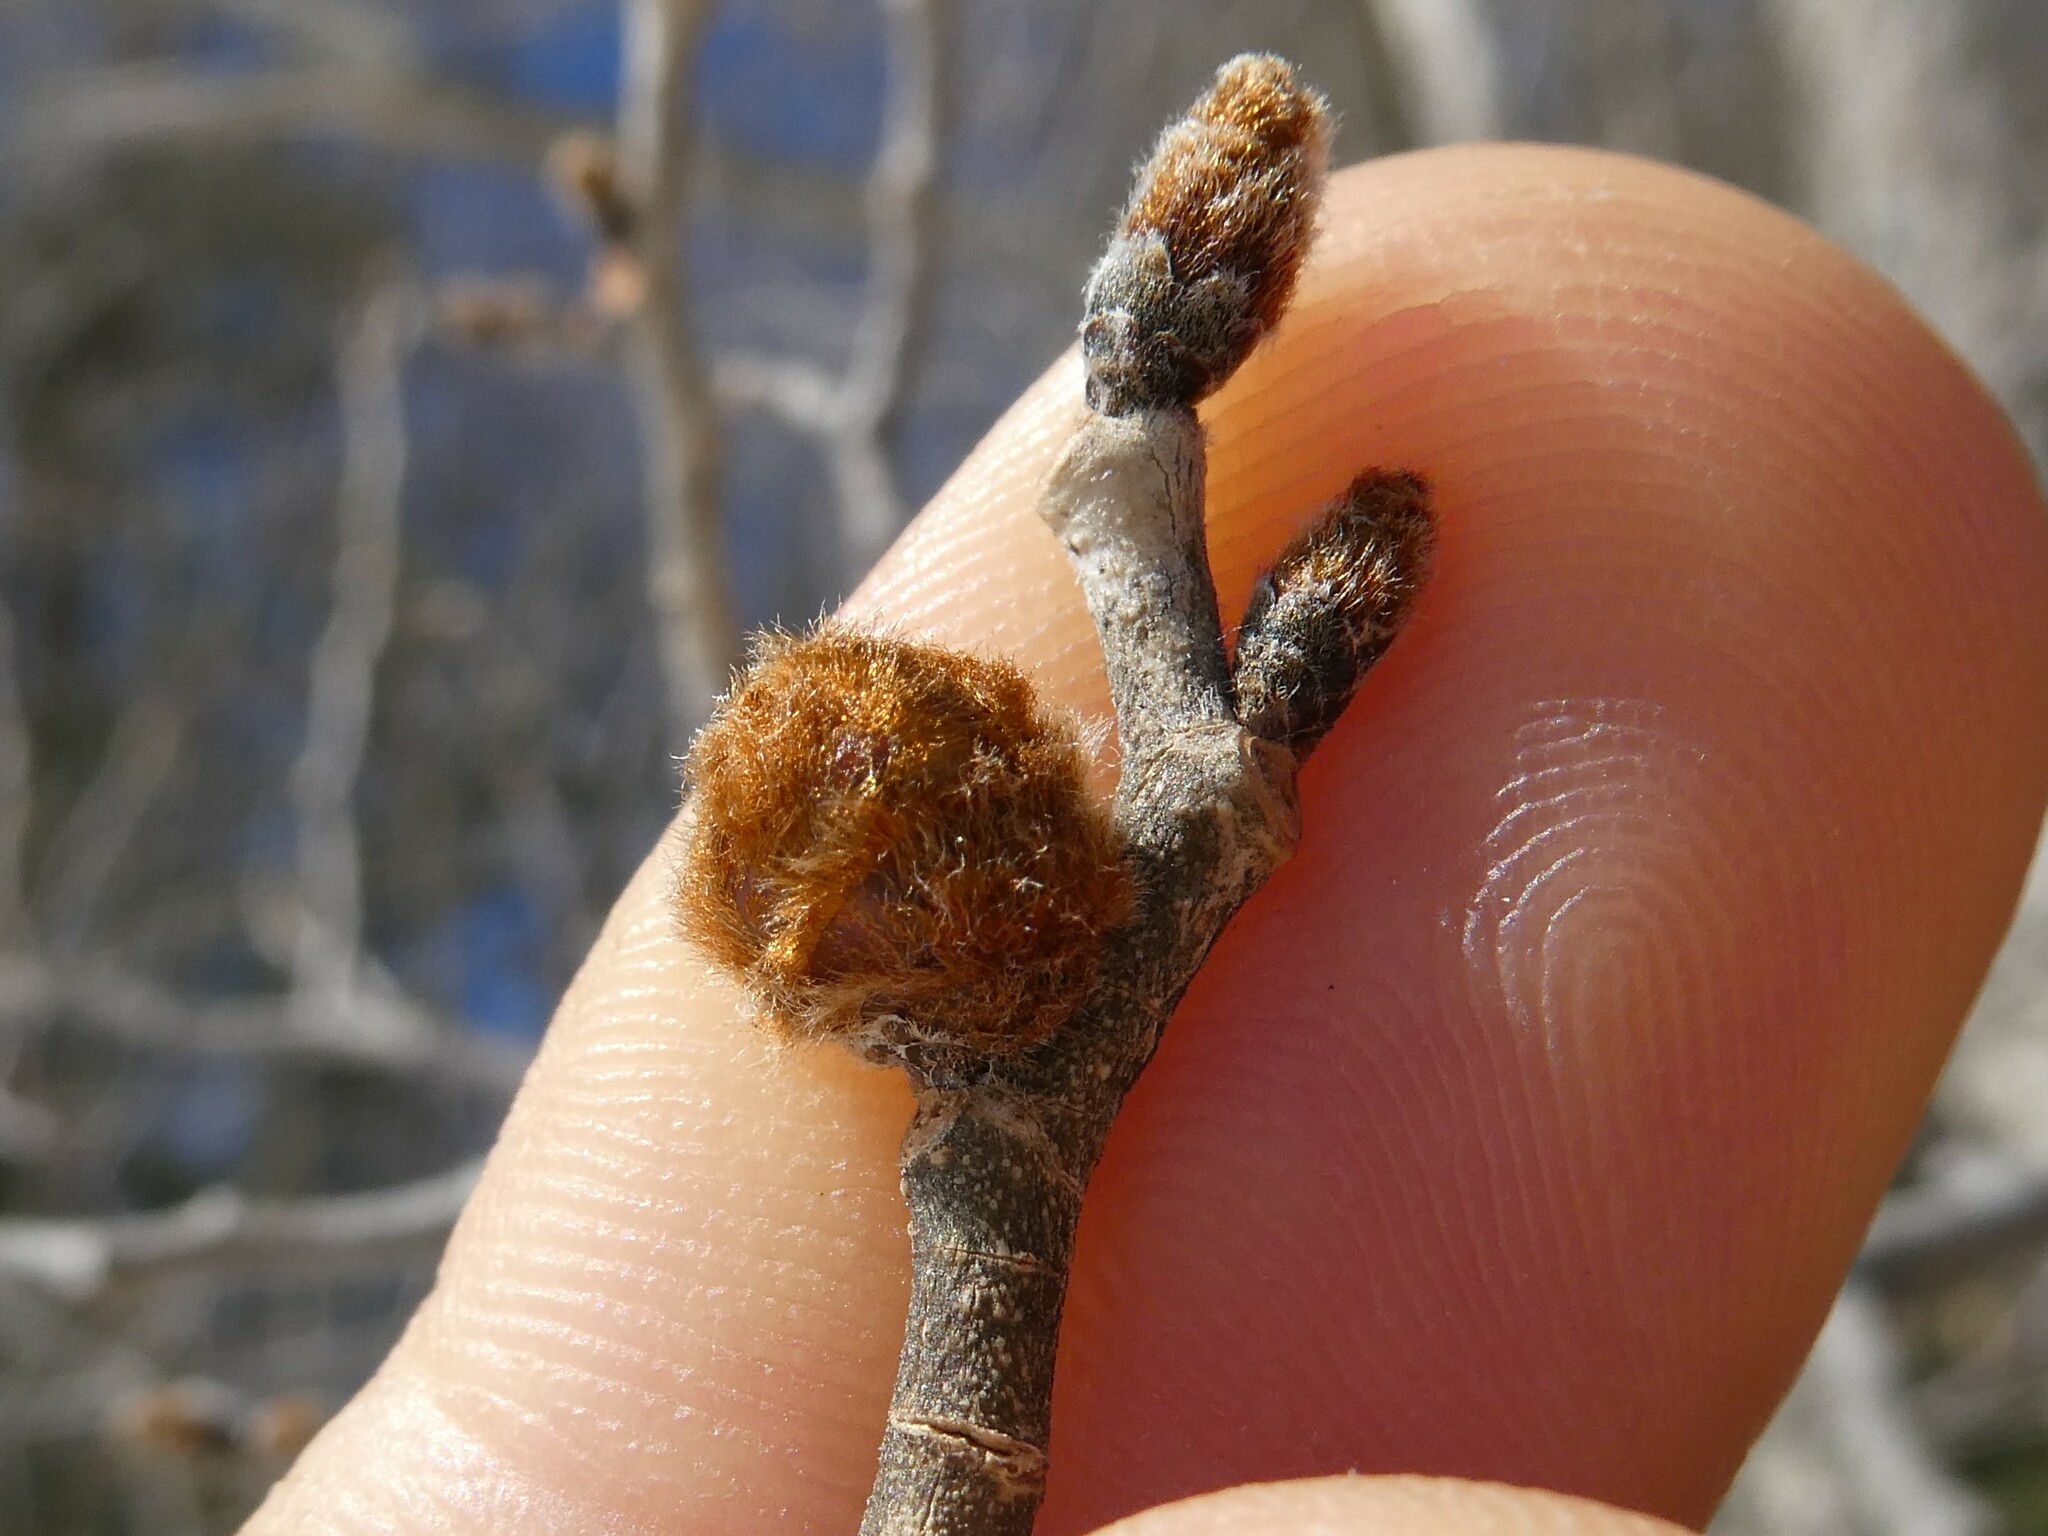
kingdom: Plantae
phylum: Tracheophyta
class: Magnoliopsida
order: Rosales
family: Ulmaceae
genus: Ulmus
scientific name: Ulmus rubra
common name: Slippery elm
